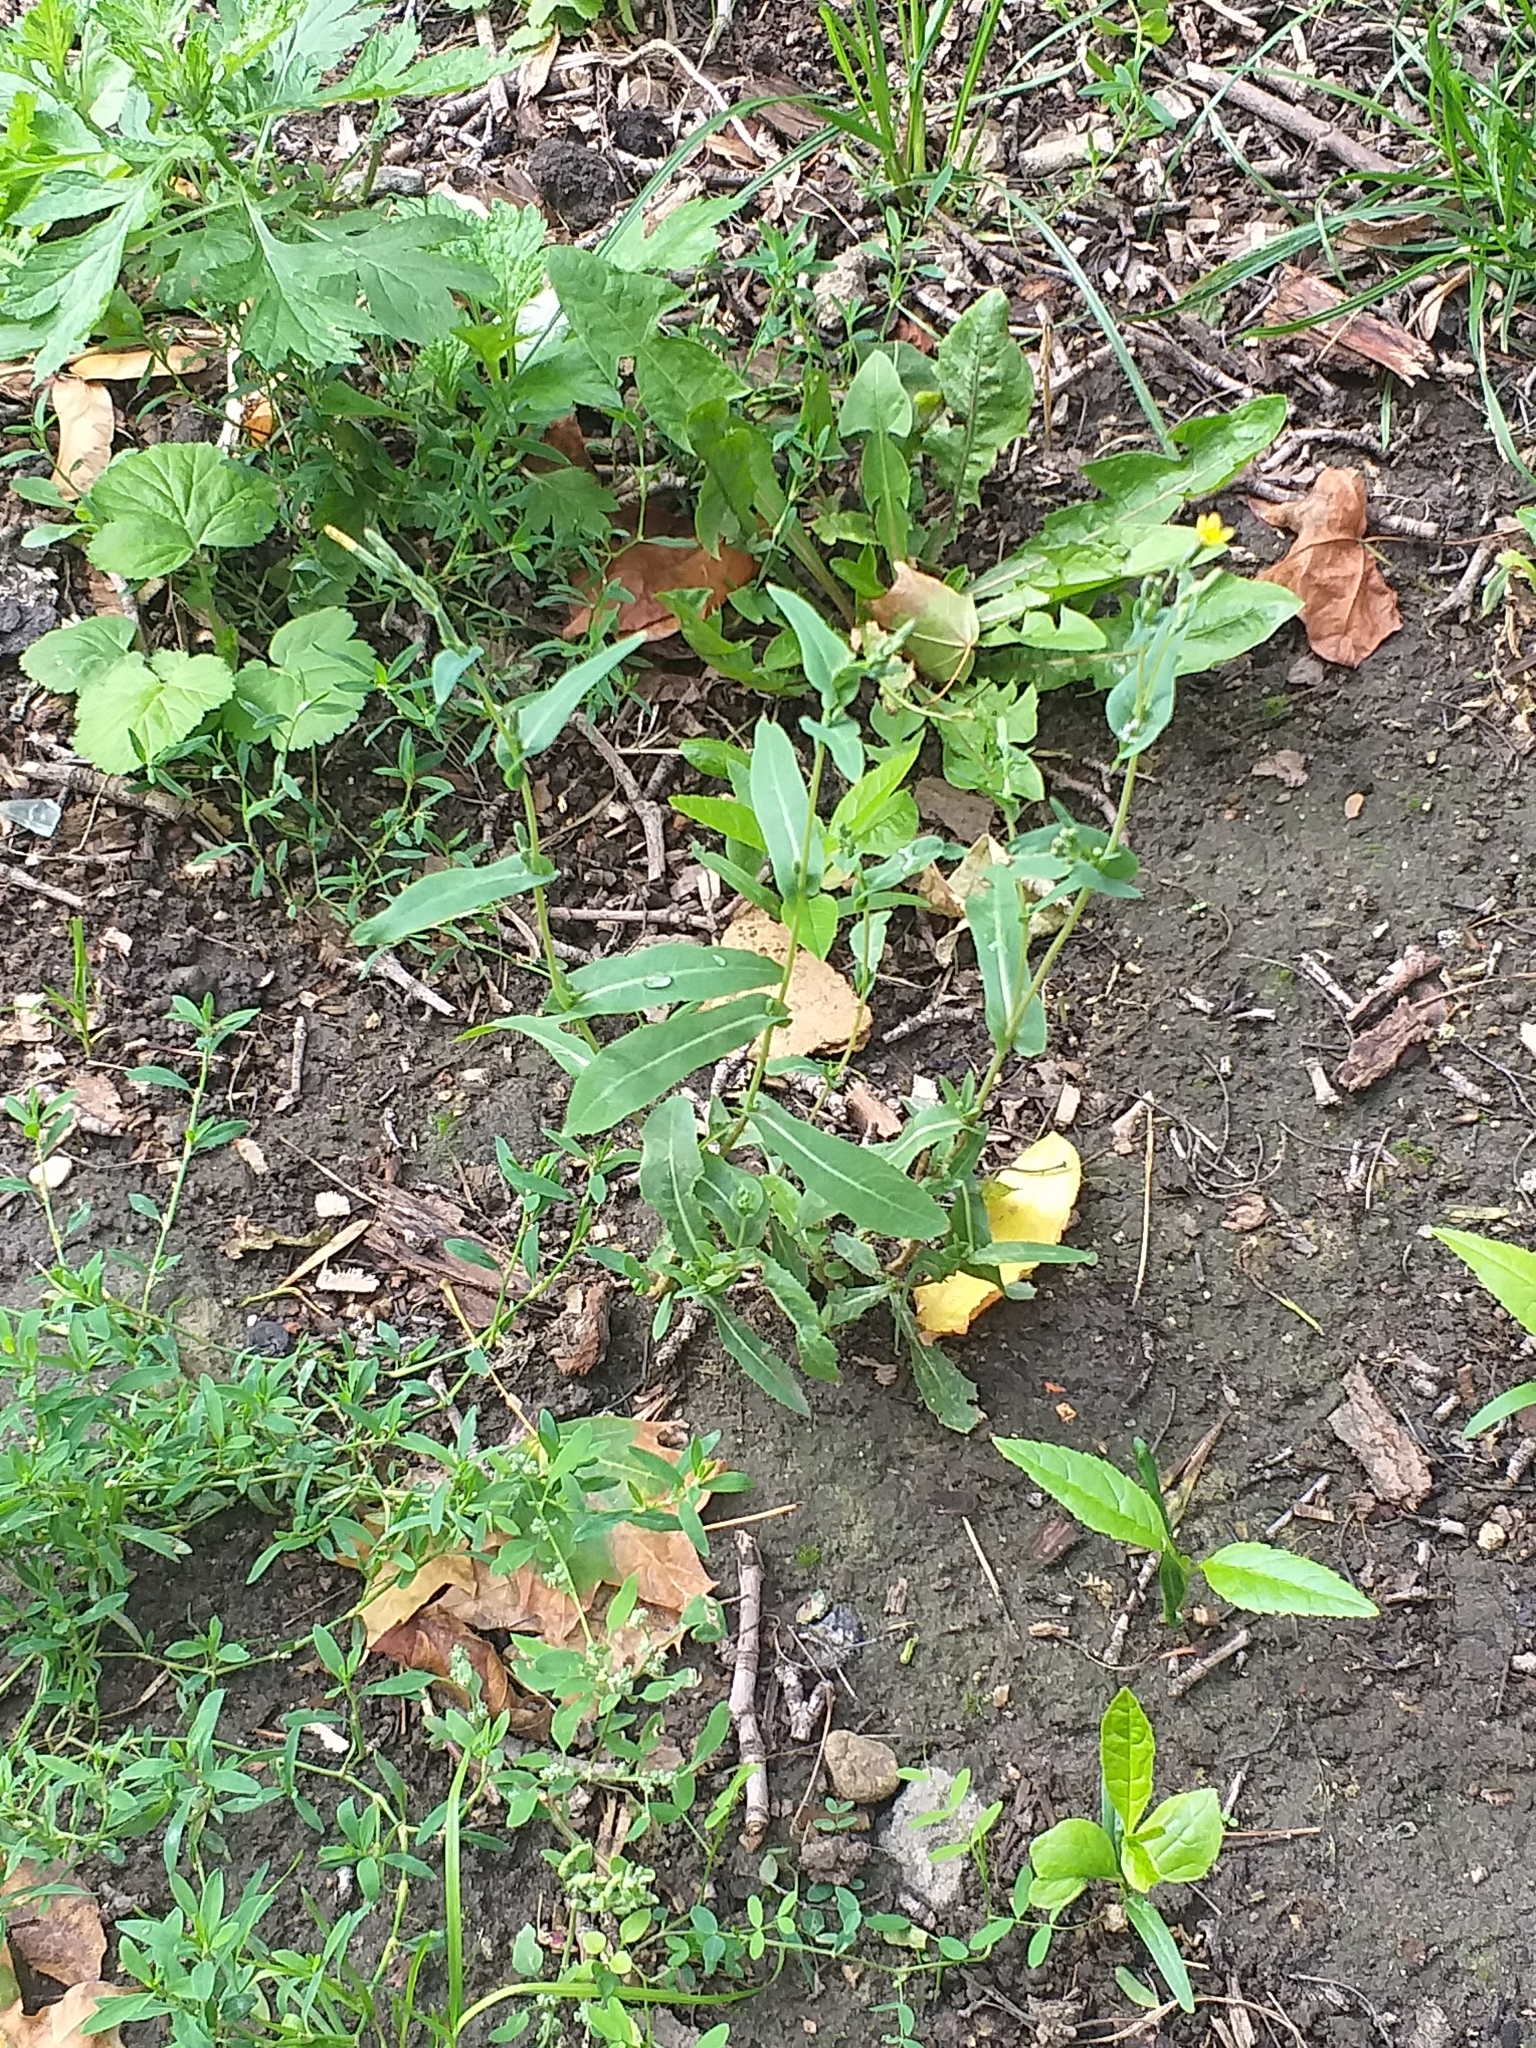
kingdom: Plantae
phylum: Tracheophyta
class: Magnoliopsida
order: Asterales
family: Asteraceae
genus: Lactuca
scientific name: Lactuca serriola
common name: Prickly lettuce
